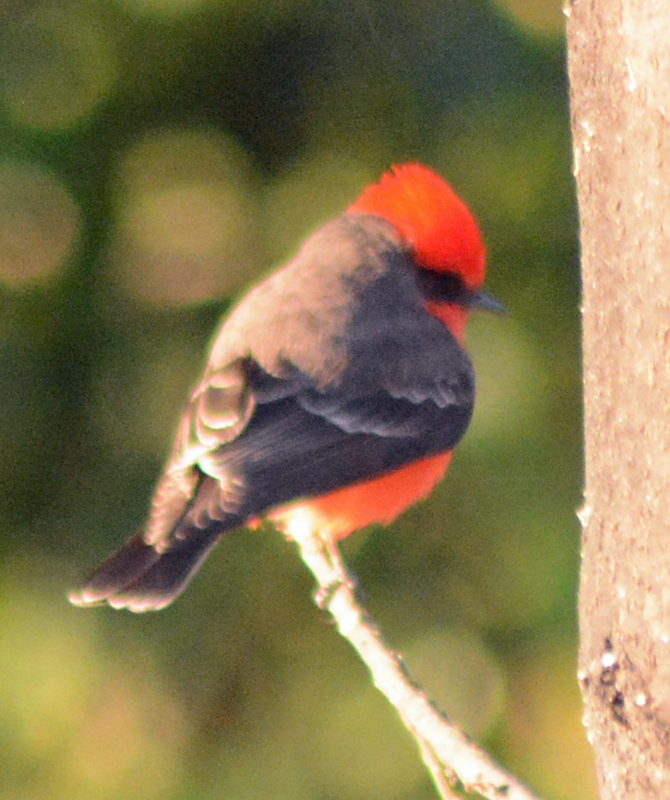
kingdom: Animalia
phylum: Chordata
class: Aves
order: Passeriformes
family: Tyrannidae
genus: Pyrocephalus
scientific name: Pyrocephalus rubinus
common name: Vermilion flycatcher
